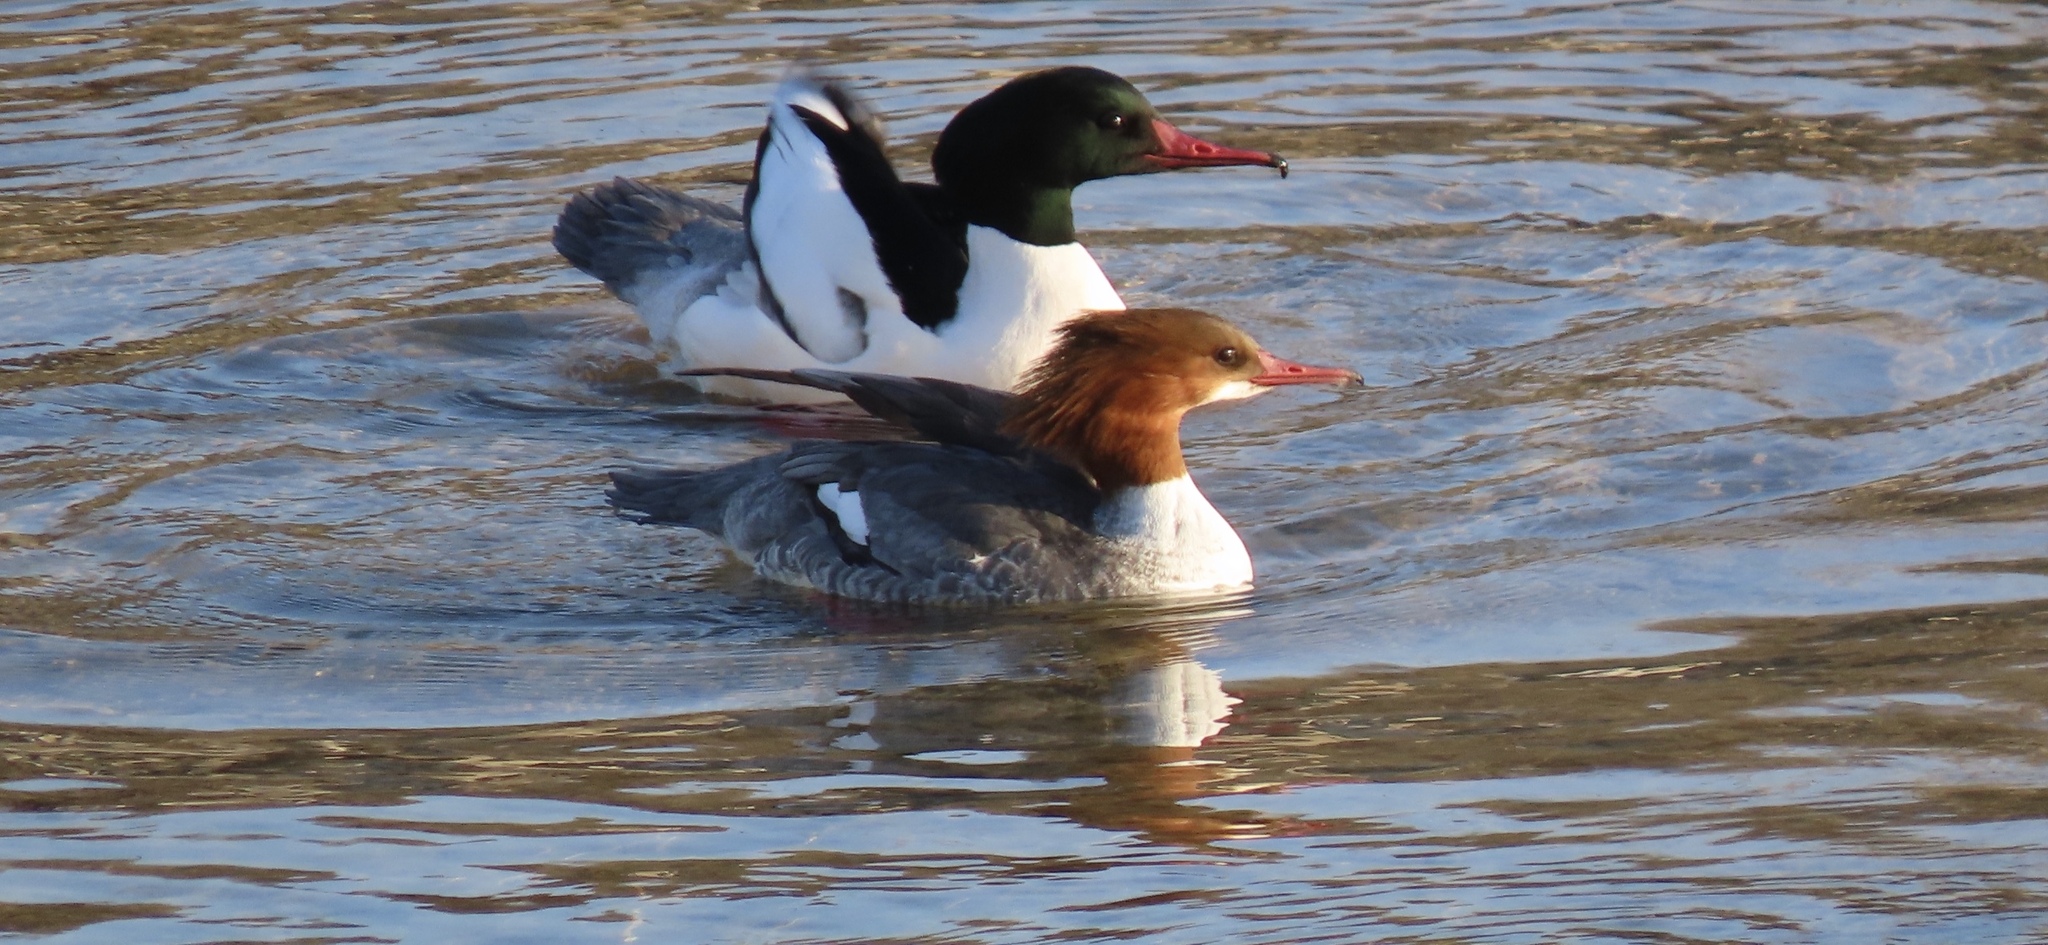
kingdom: Animalia
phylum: Chordata
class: Aves
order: Anseriformes
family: Anatidae
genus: Mergus
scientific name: Mergus merganser
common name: Common merganser
